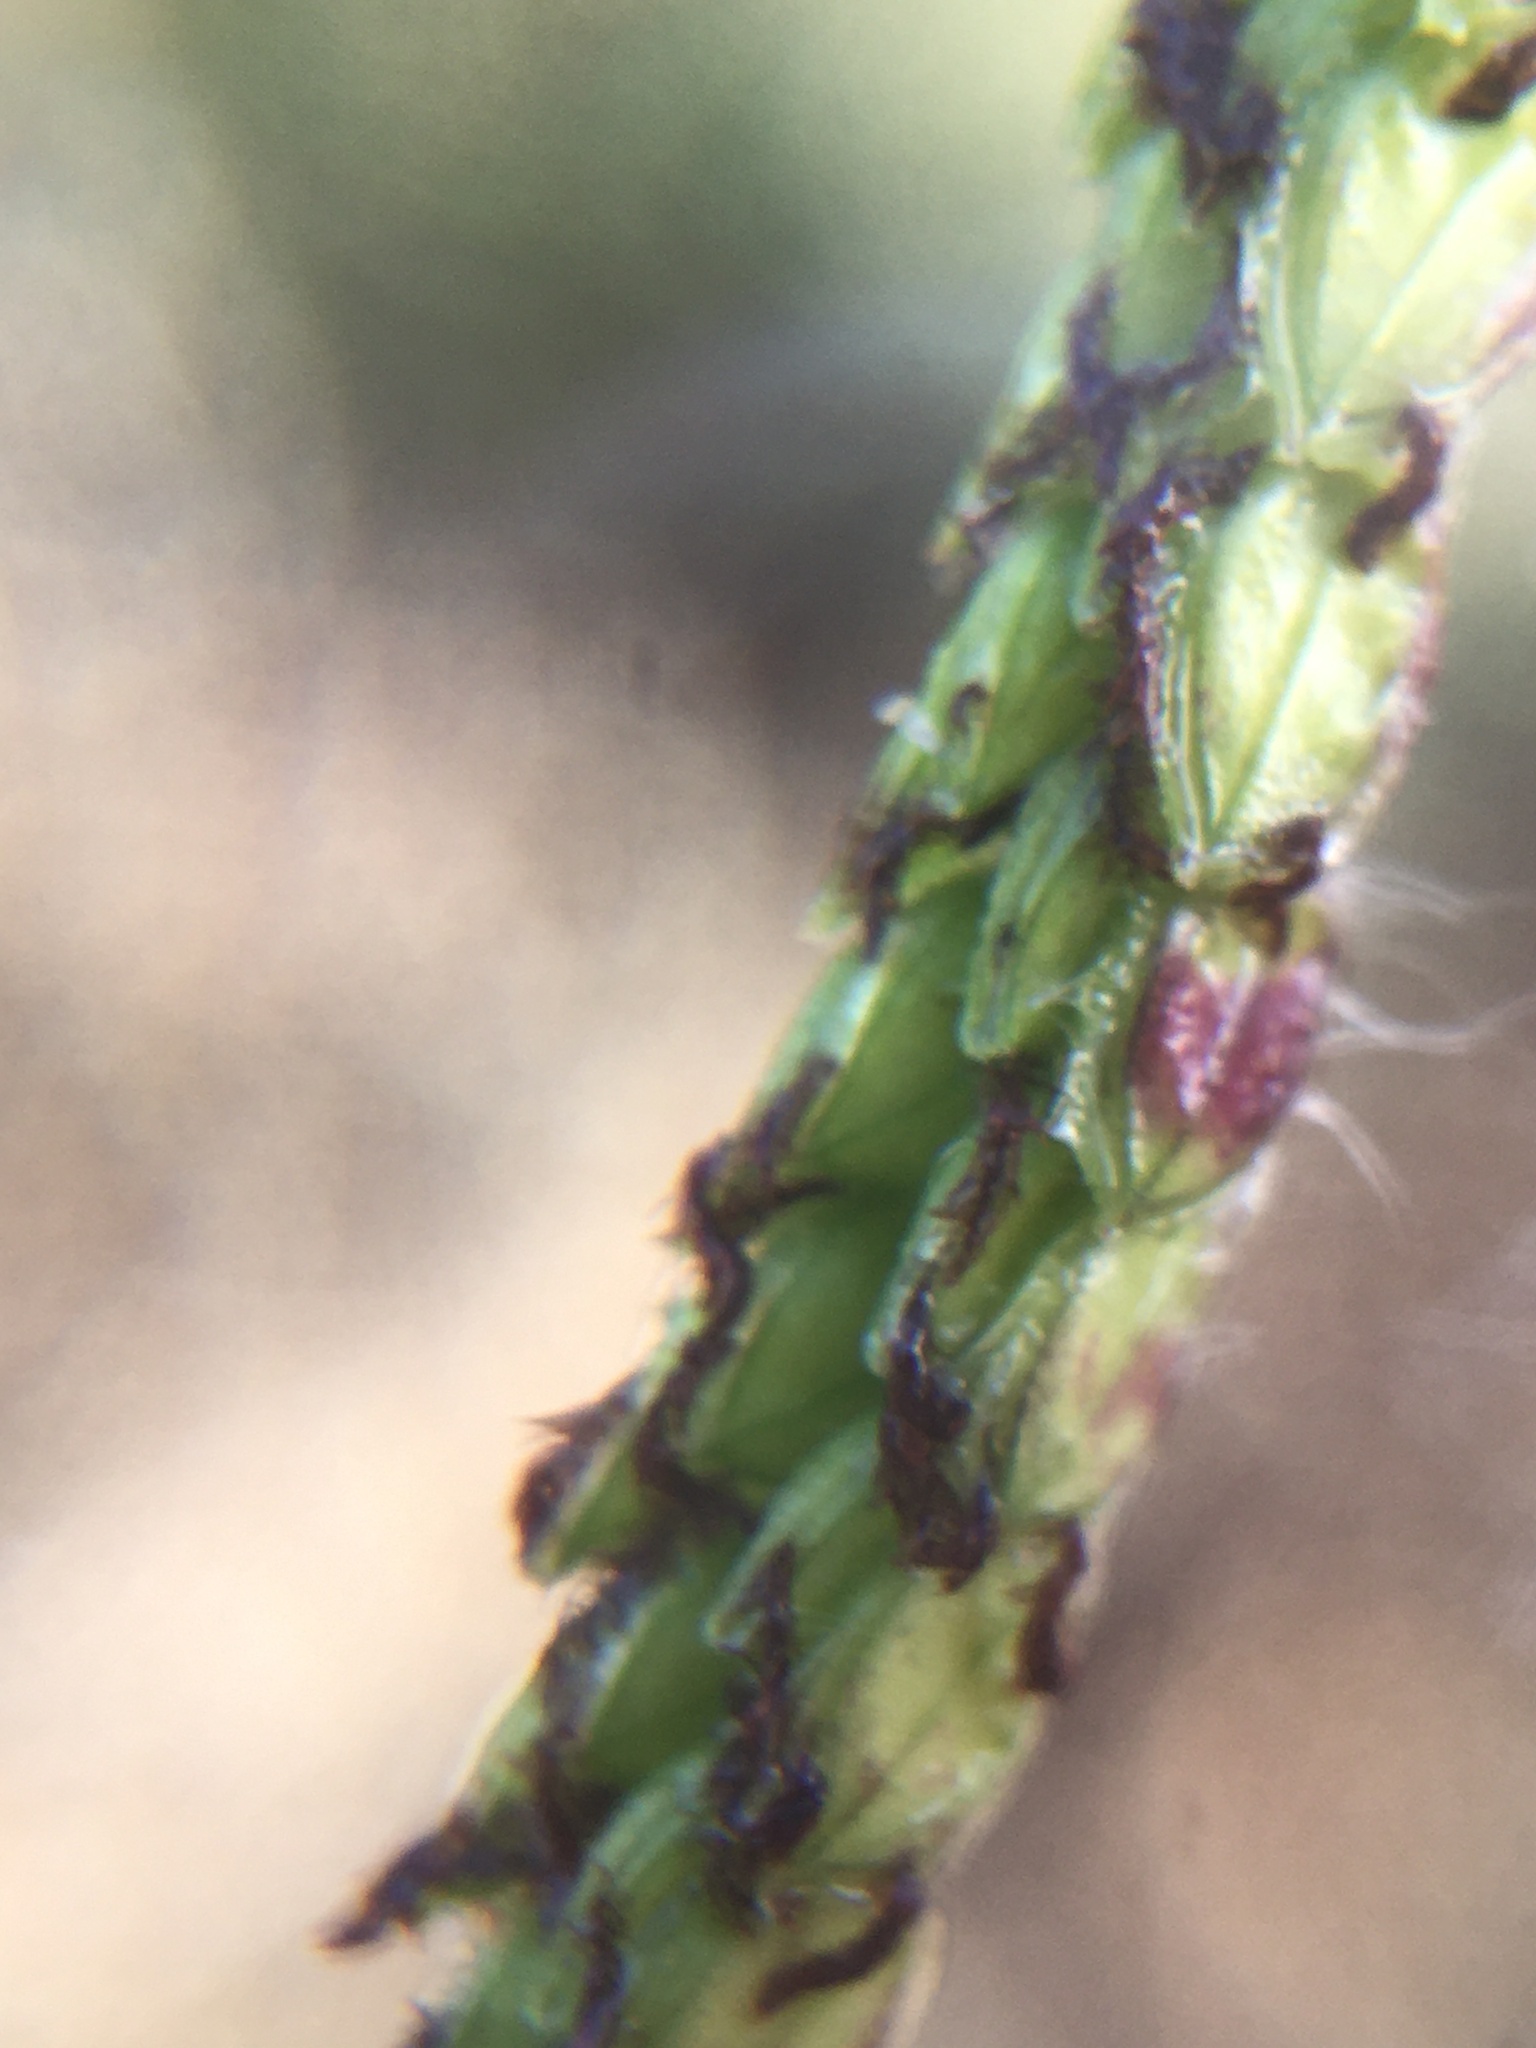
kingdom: Plantae
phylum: Tracheophyta
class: Liliopsida
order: Poales
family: Poaceae
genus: Paspalum
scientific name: Paspalum dilatatum
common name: Dallisgrass
